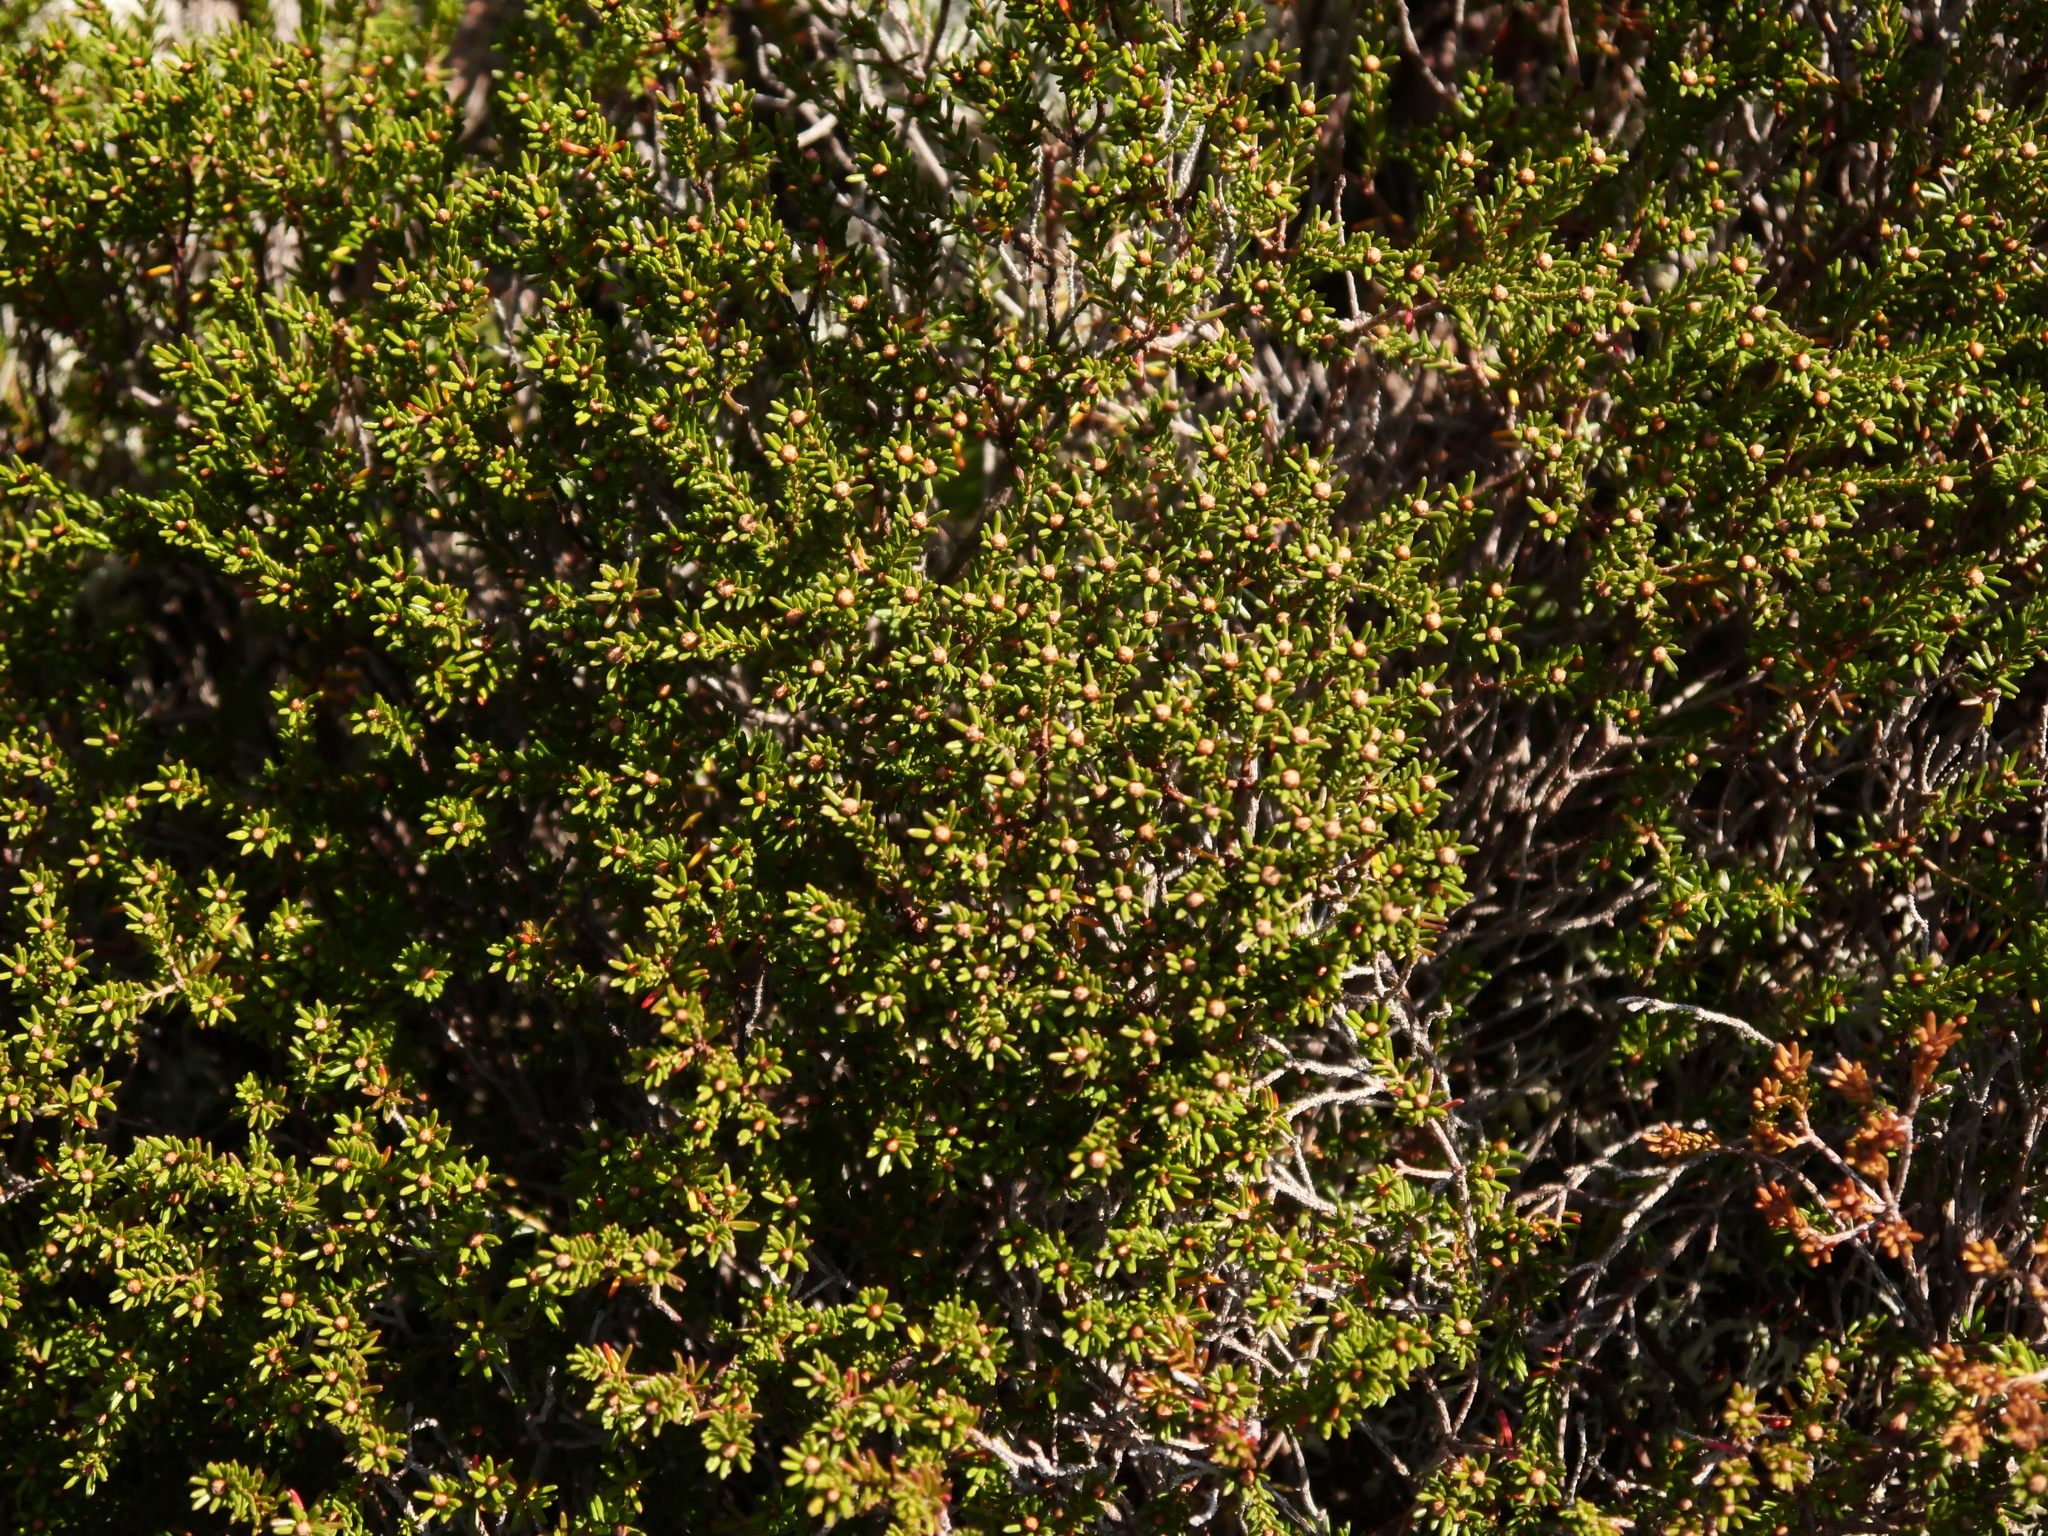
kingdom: Plantae
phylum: Tracheophyta
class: Magnoliopsida
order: Ericales
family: Ericaceae
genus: Corema
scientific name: Corema conradii
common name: Broom-crowberry
